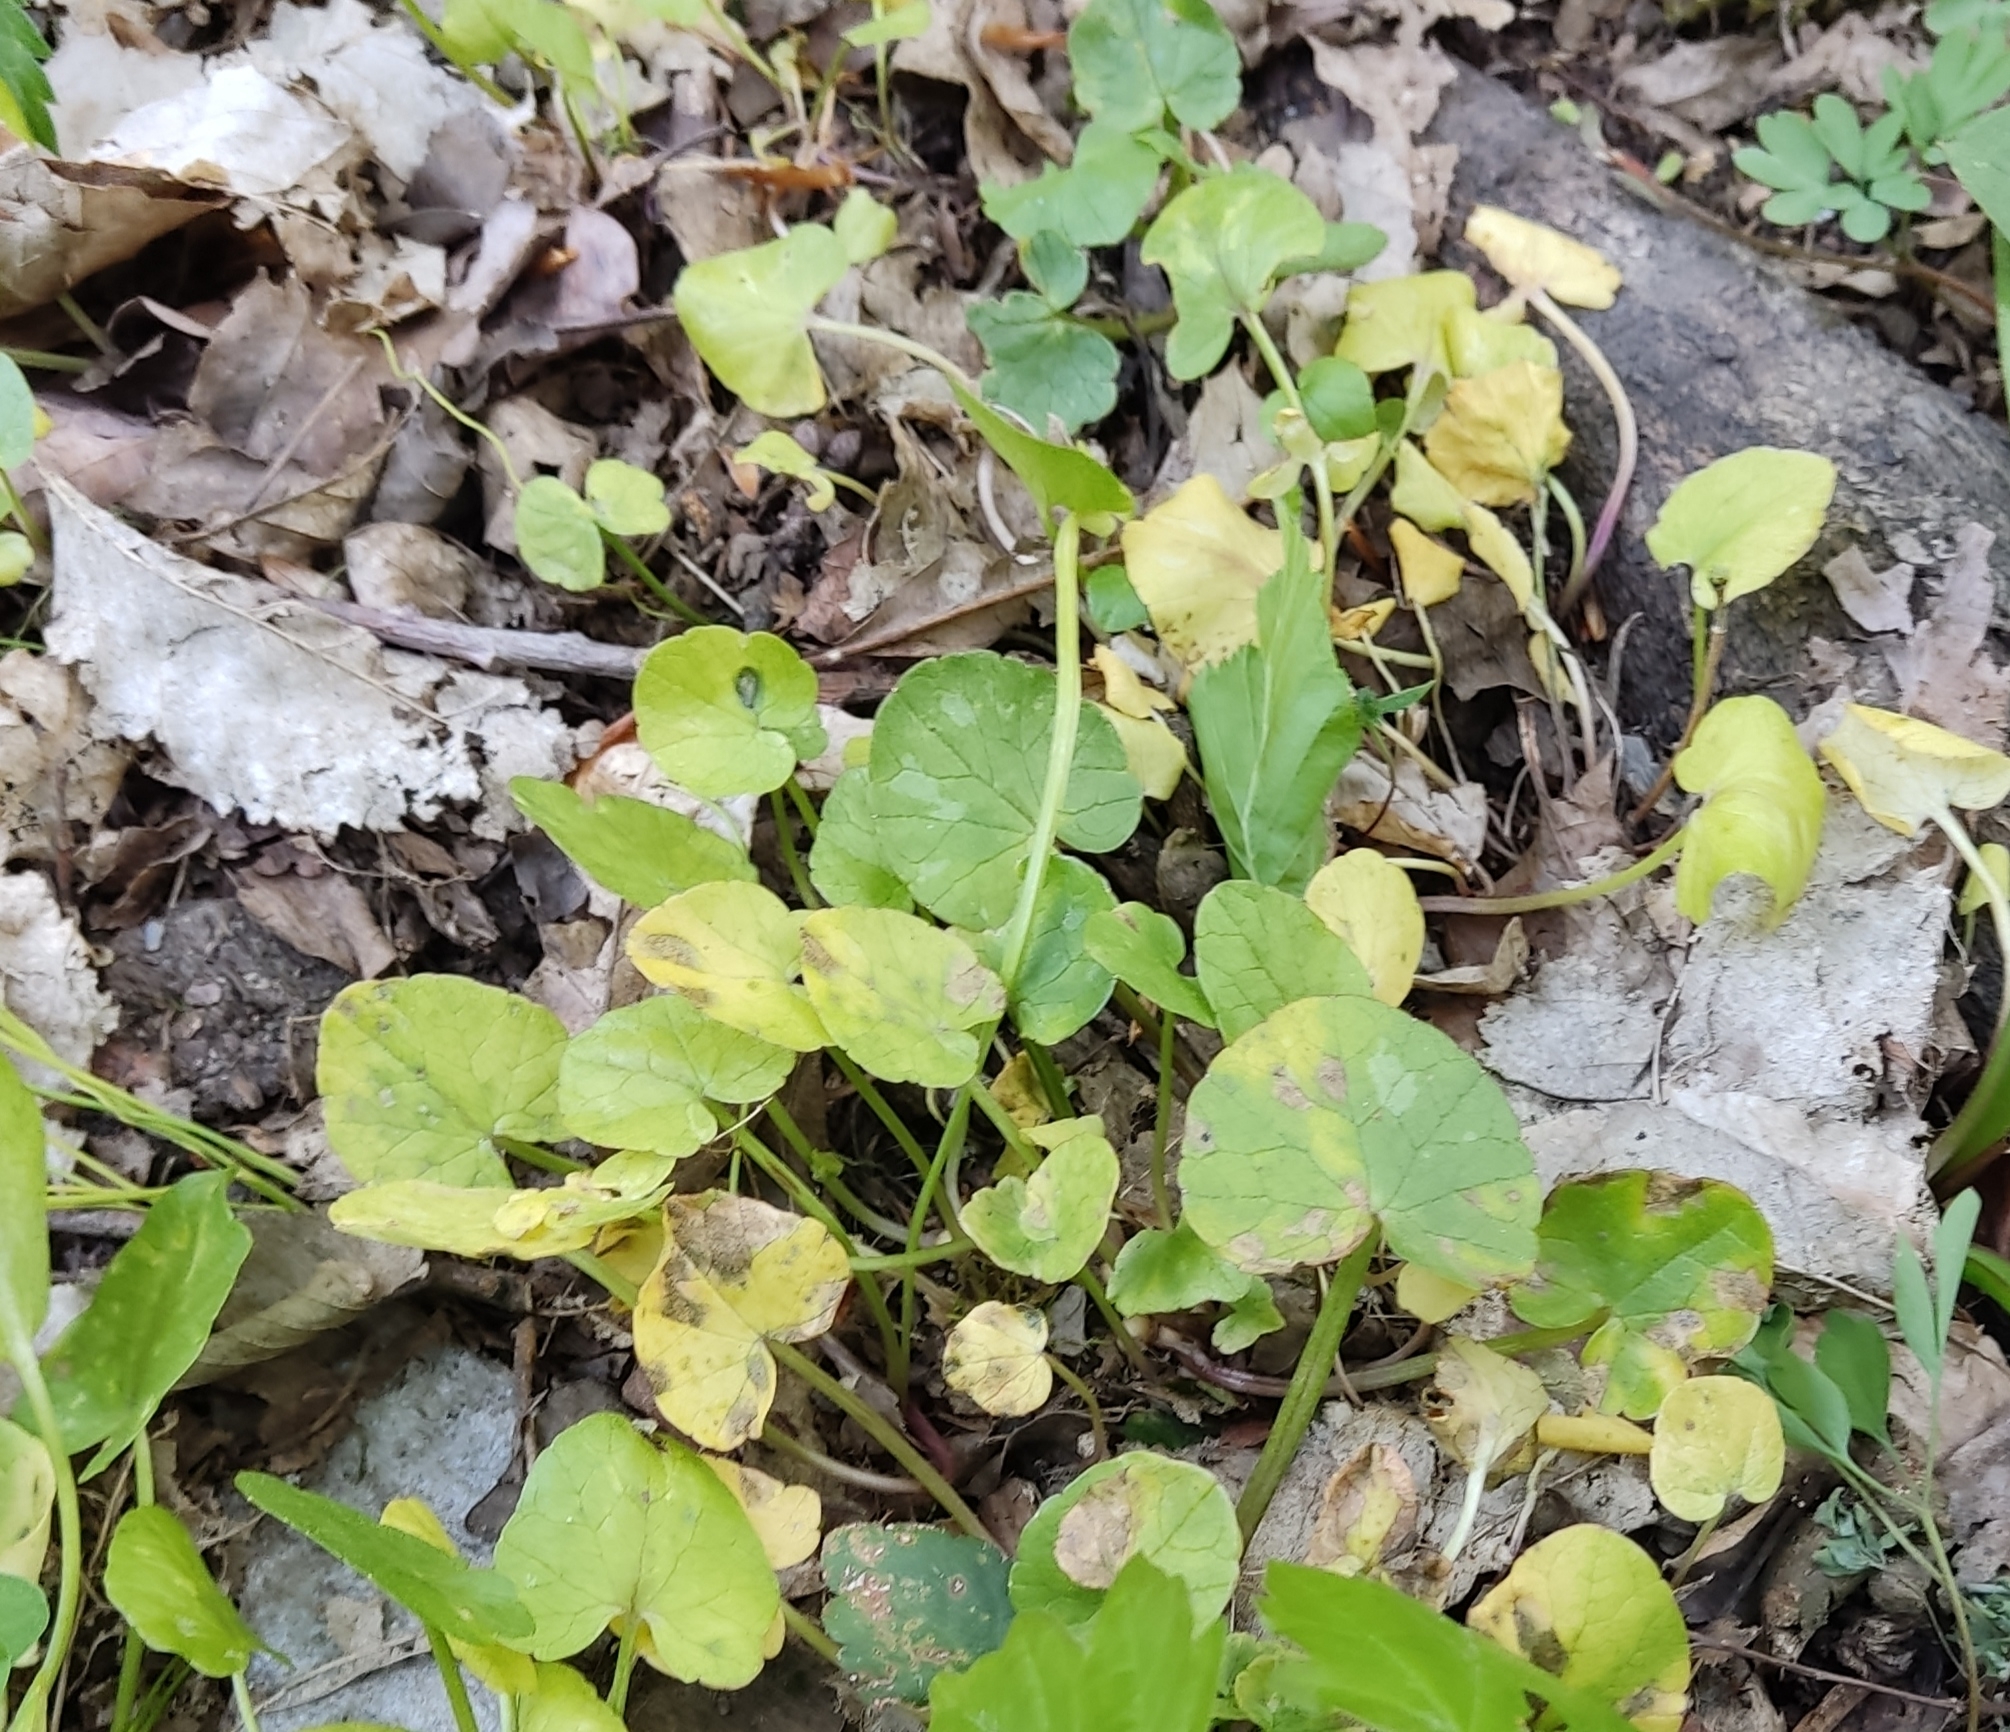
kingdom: Plantae
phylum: Tracheophyta
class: Magnoliopsida
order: Ranunculales
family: Ranunculaceae
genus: Ficaria
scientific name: Ficaria
